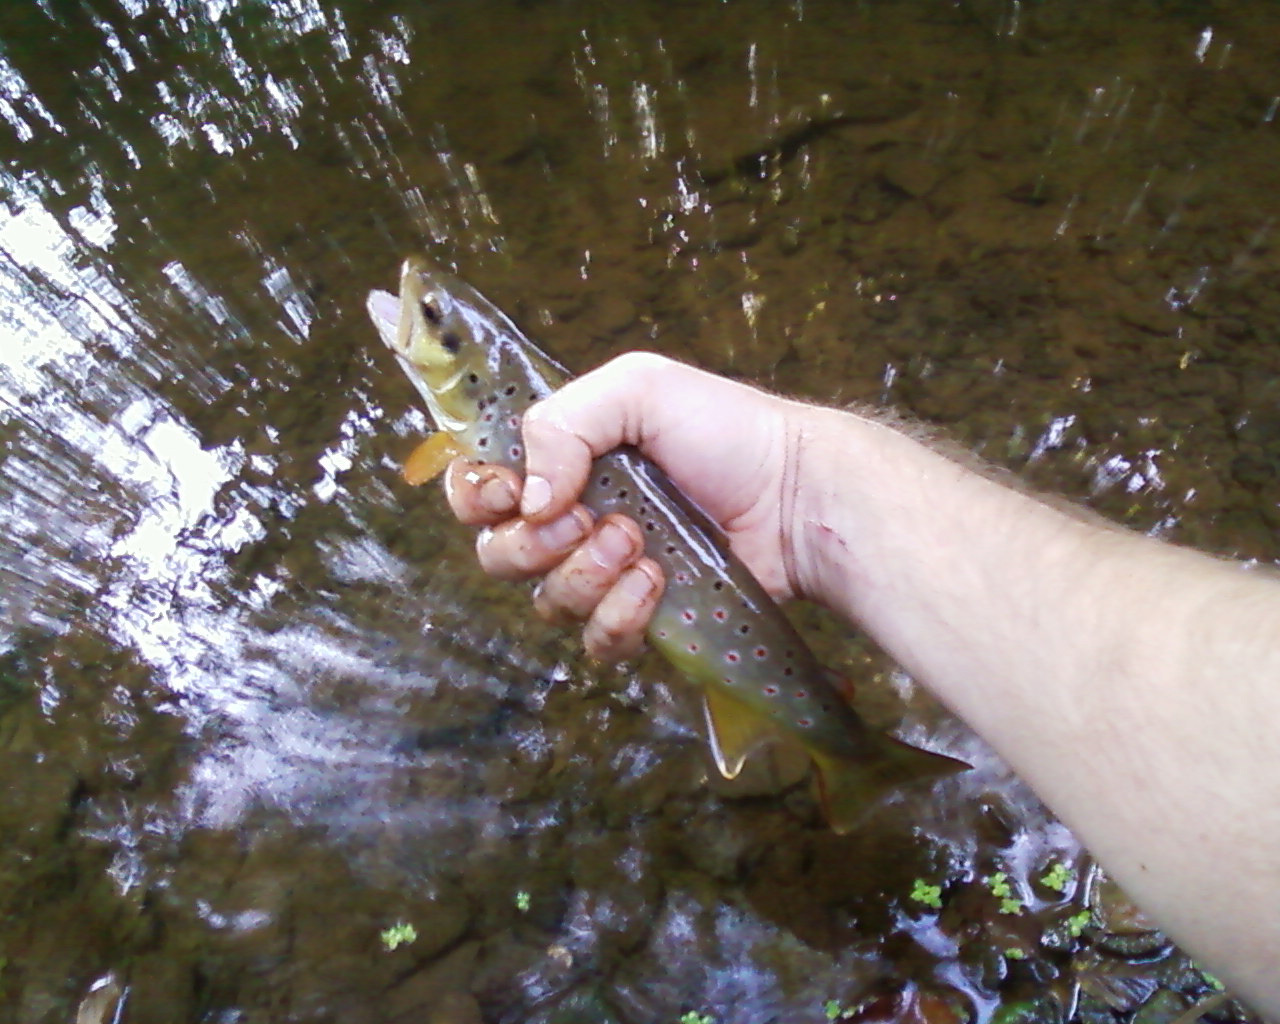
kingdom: Animalia
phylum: Chordata
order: Salmoniformes
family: Salmonidae
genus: Salmo
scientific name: Salmo trutta
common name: Brown trout
